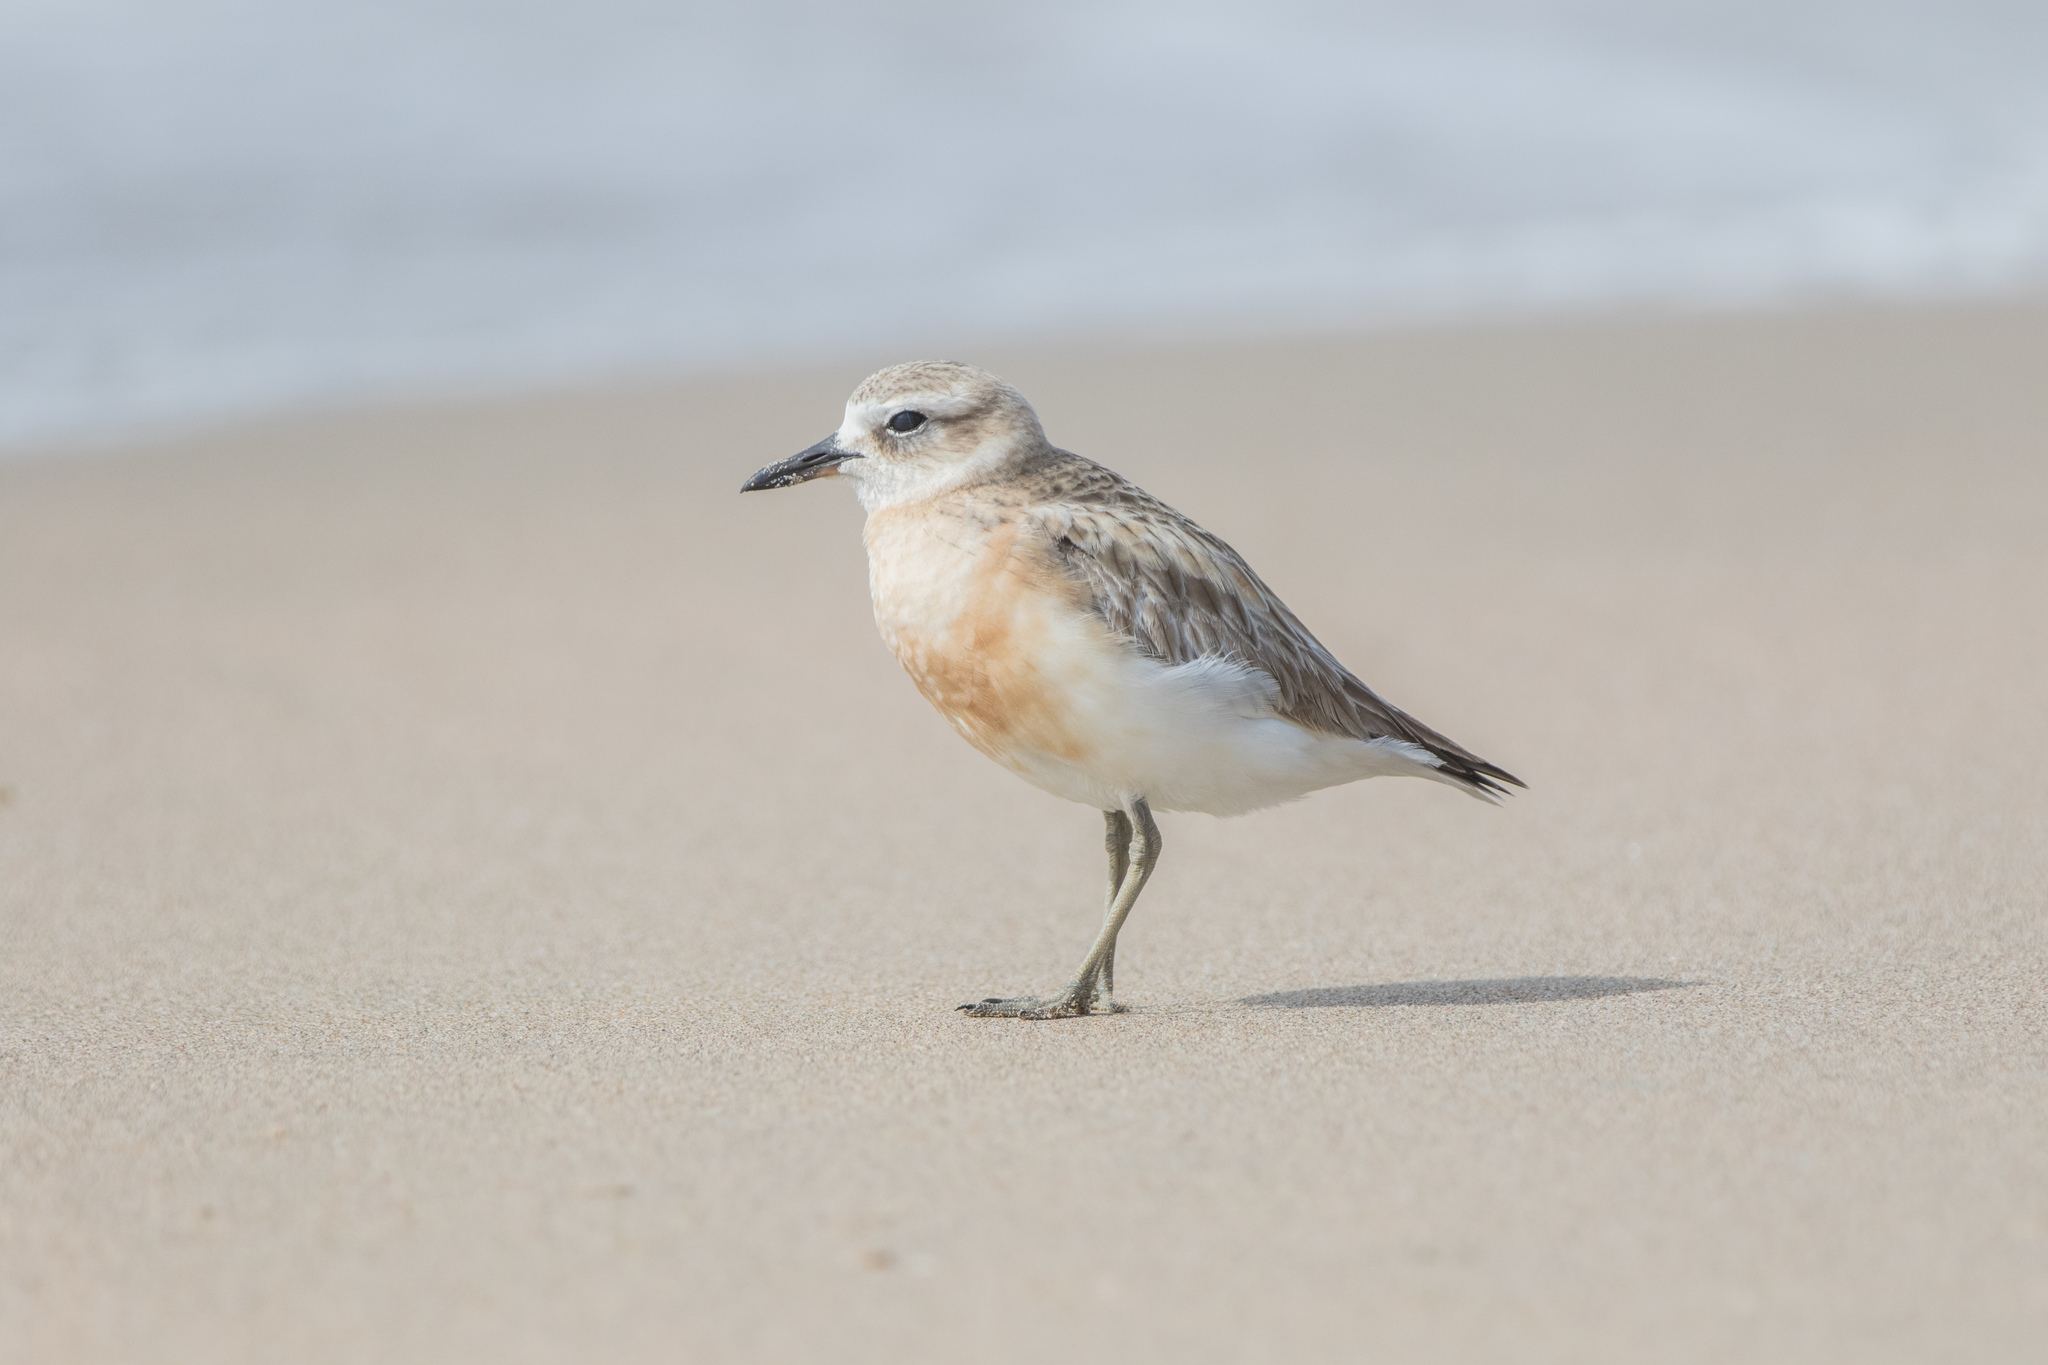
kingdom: Animalia
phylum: Chordata
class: Aves
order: Charadriiformes
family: Charadriidae
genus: Anarhynchus
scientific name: Anarhynchus
